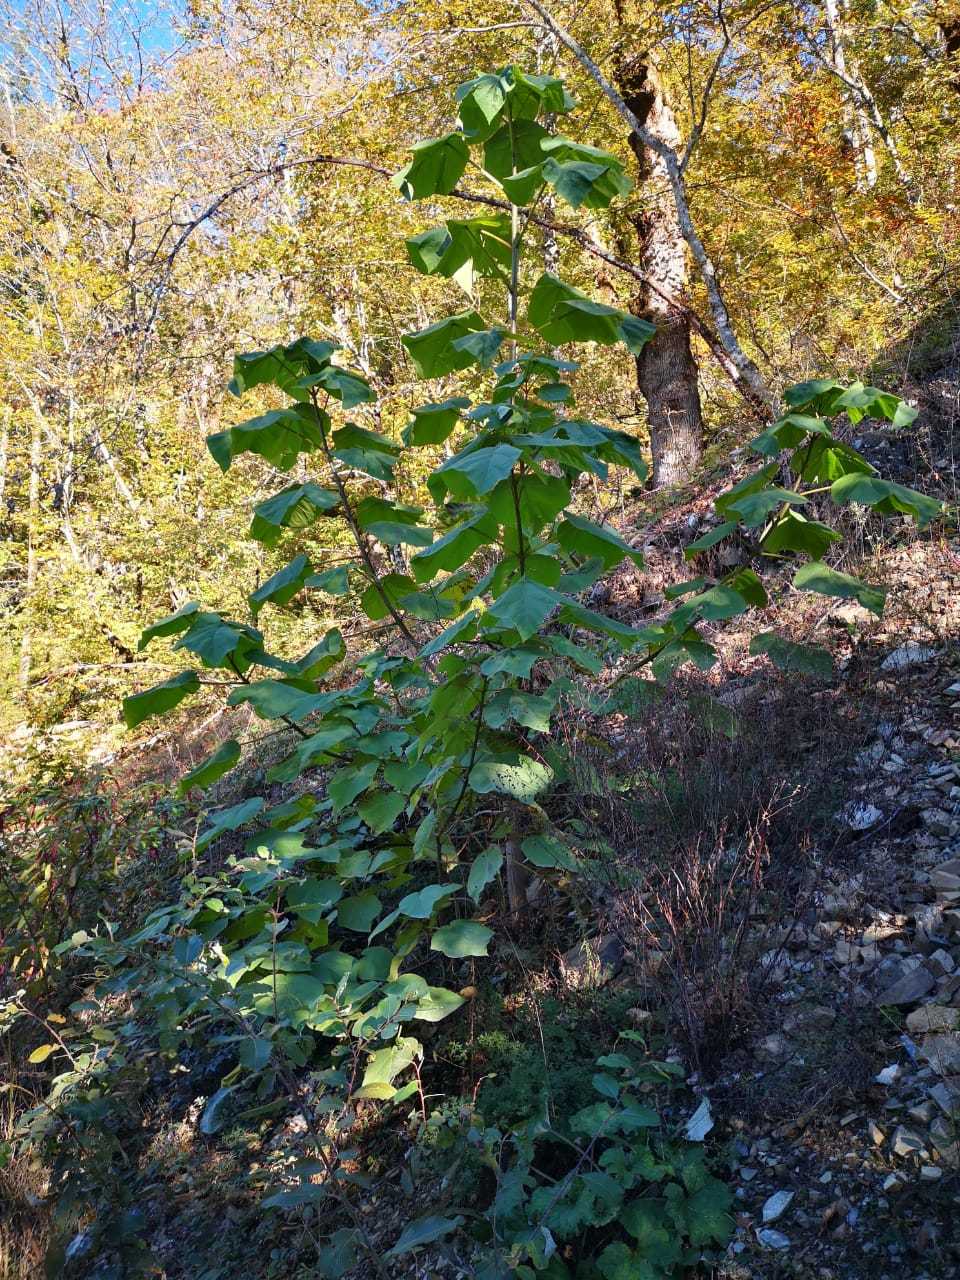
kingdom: Plantae
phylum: Tracheophyta
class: Magnoliopsida
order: Lamiales
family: Paulowniaceae
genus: Paulownia
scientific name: Paulownia tomentosa
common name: Foxglove-tree
